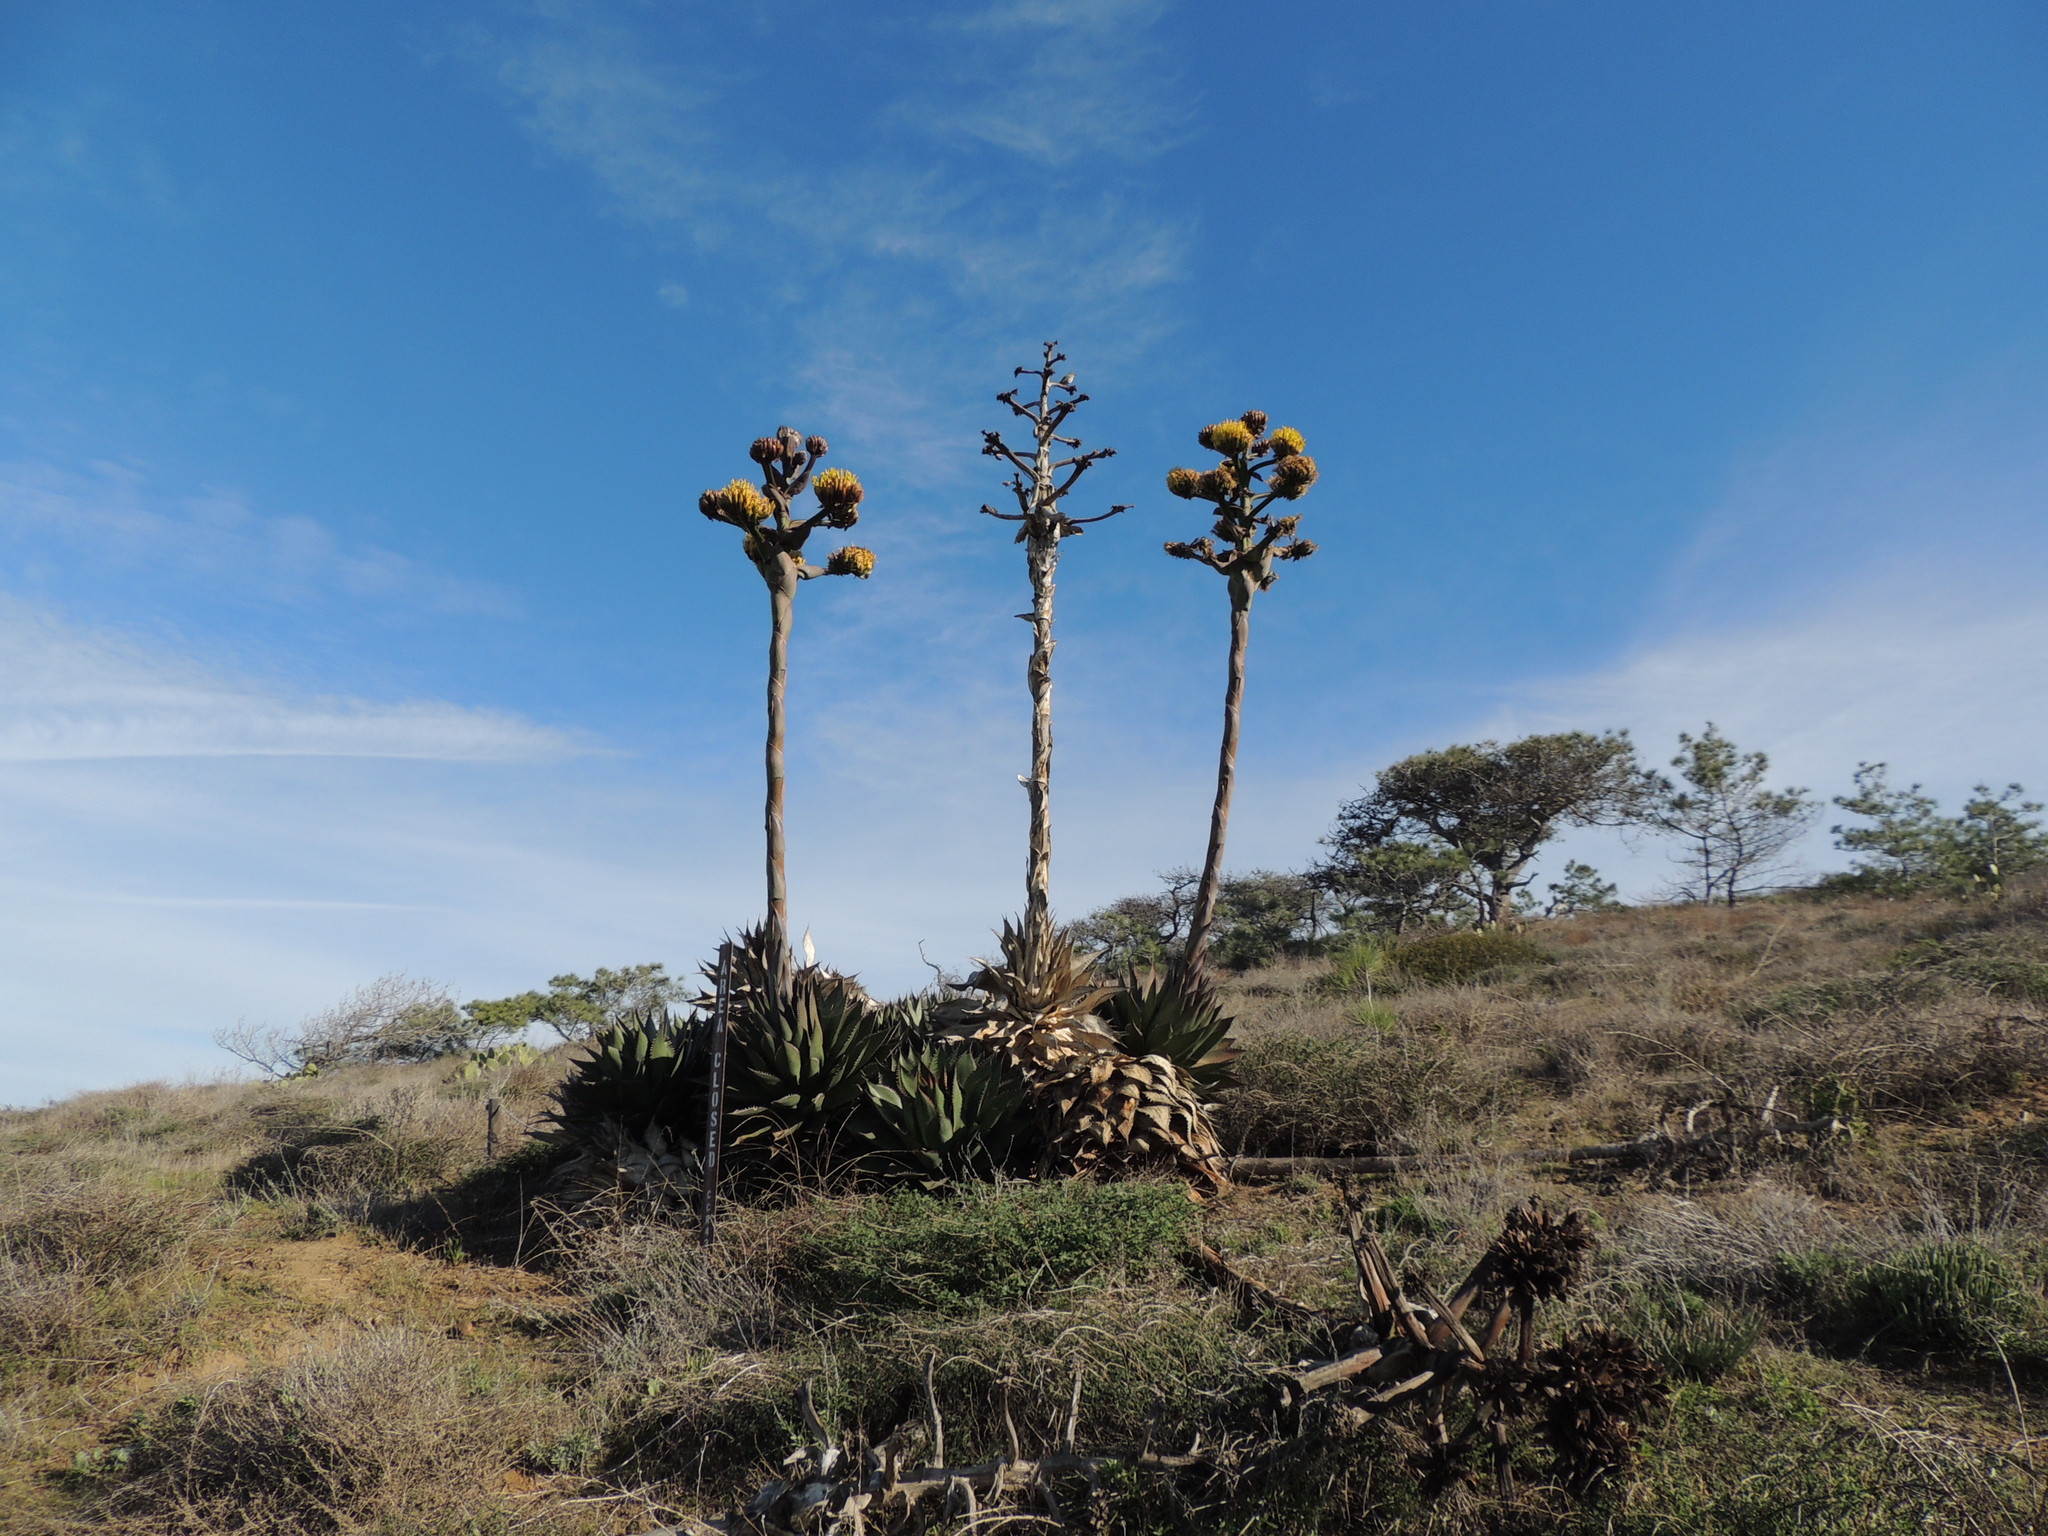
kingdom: Plantae
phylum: Tracheophyta
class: Liliopsida
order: Asparagales
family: Asparagaceae
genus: Agave
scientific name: Agave shawii
